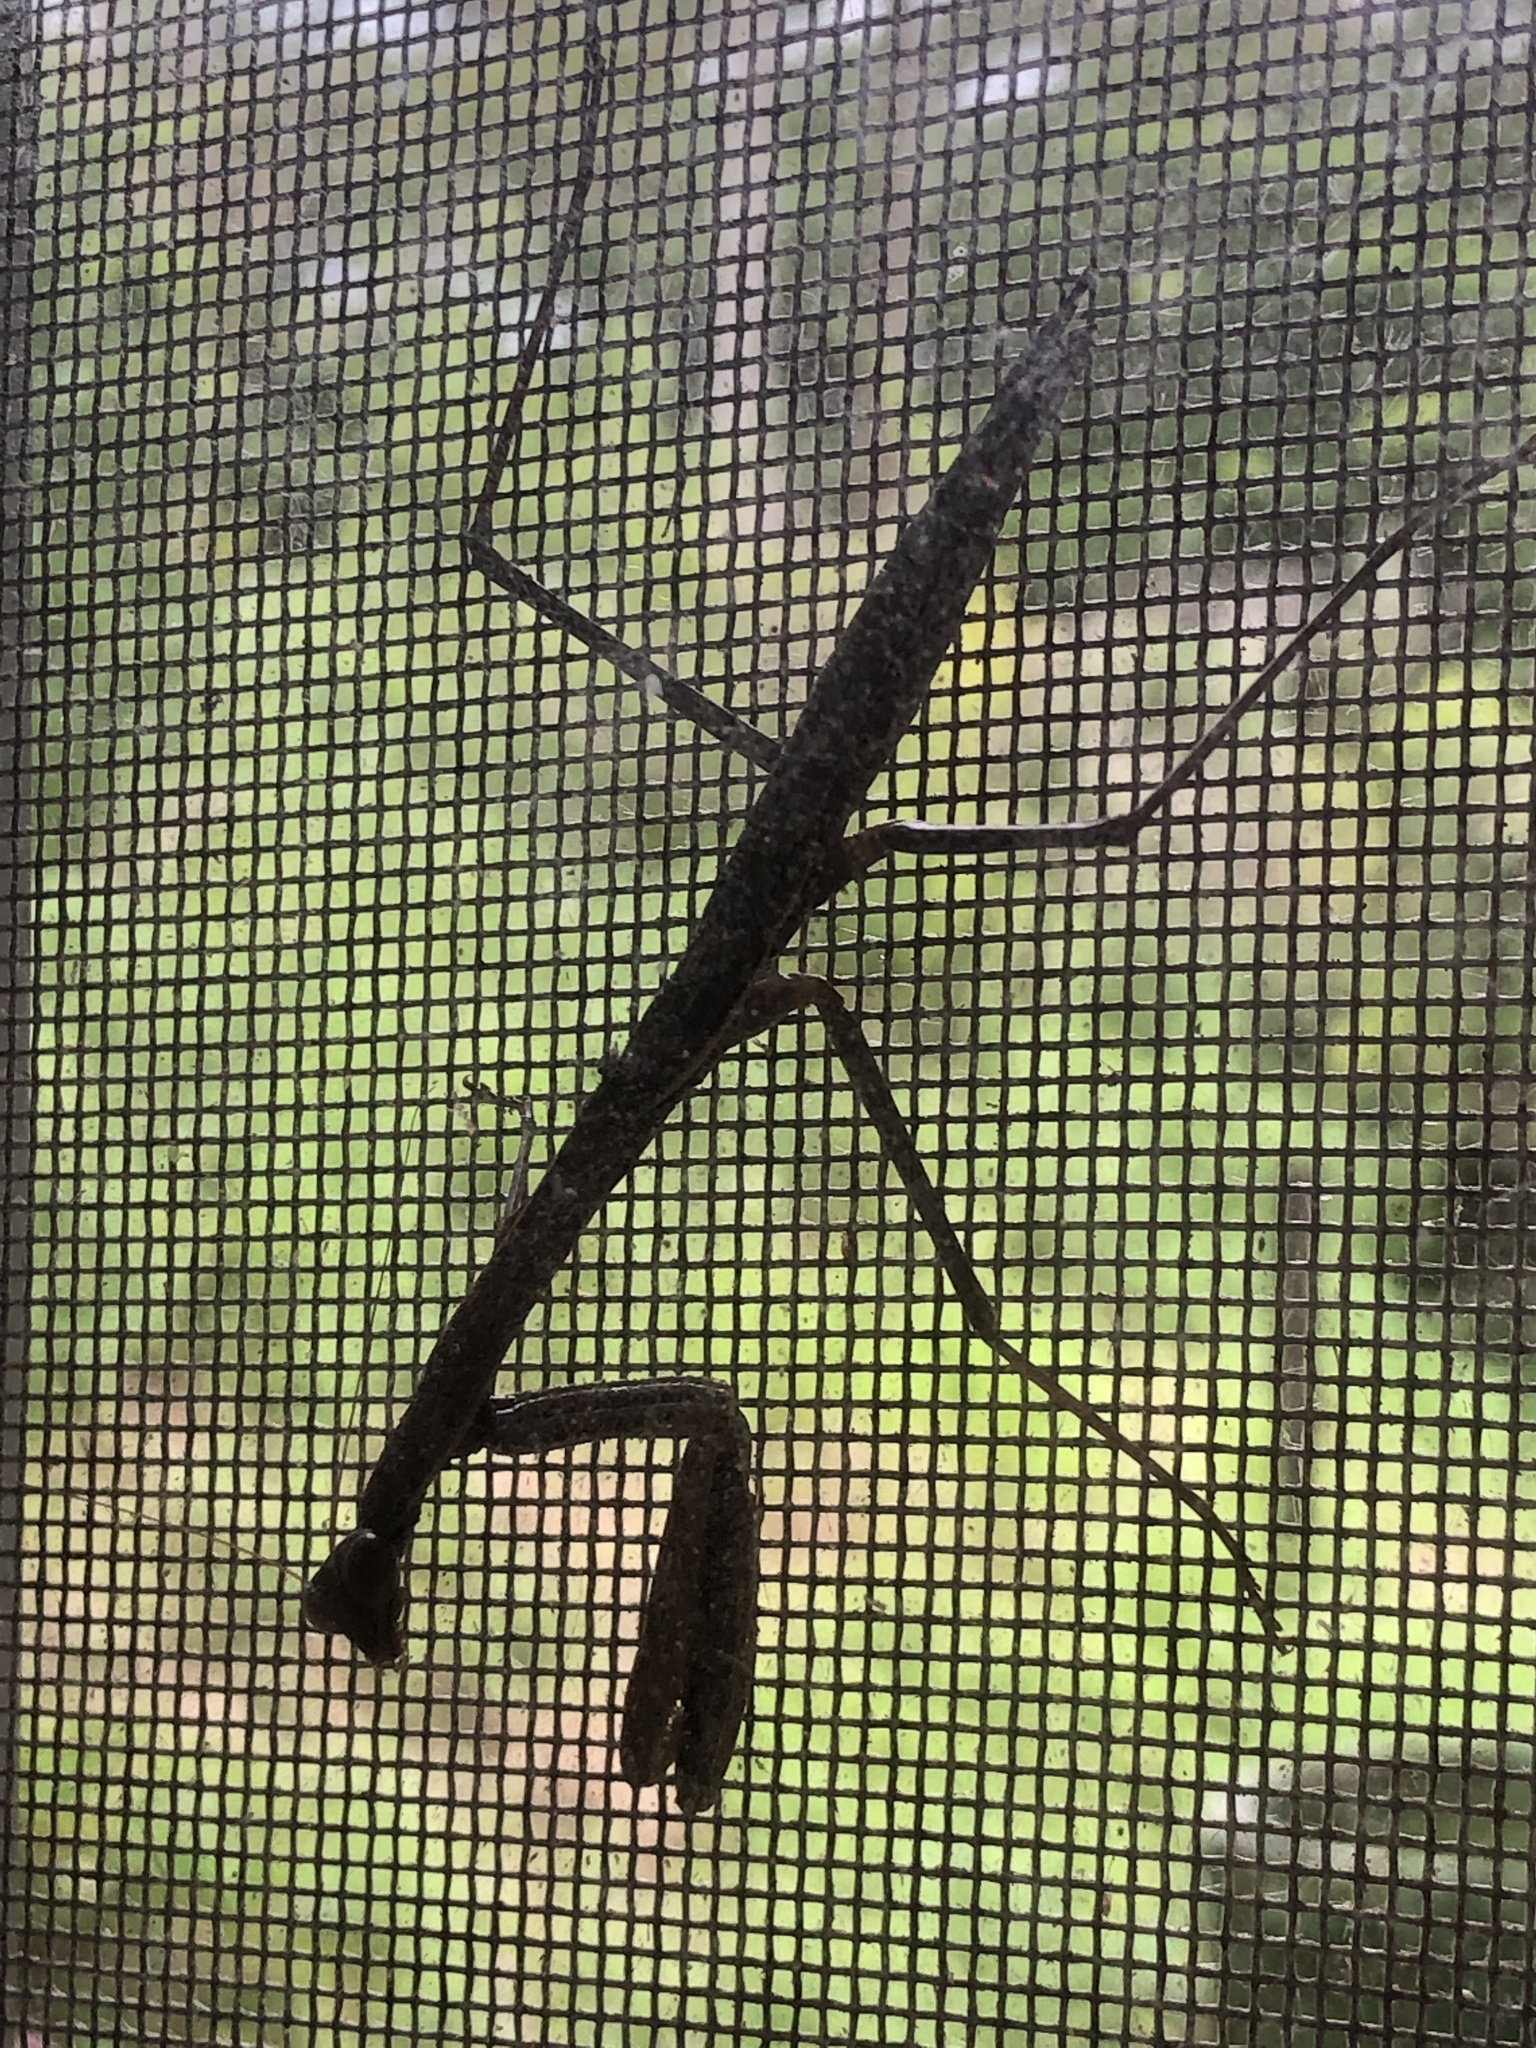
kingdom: Animalia
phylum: Arthropoda
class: Insecta
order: Mantodea
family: Mantidae
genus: Tenodera
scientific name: Tenodera fasciata
